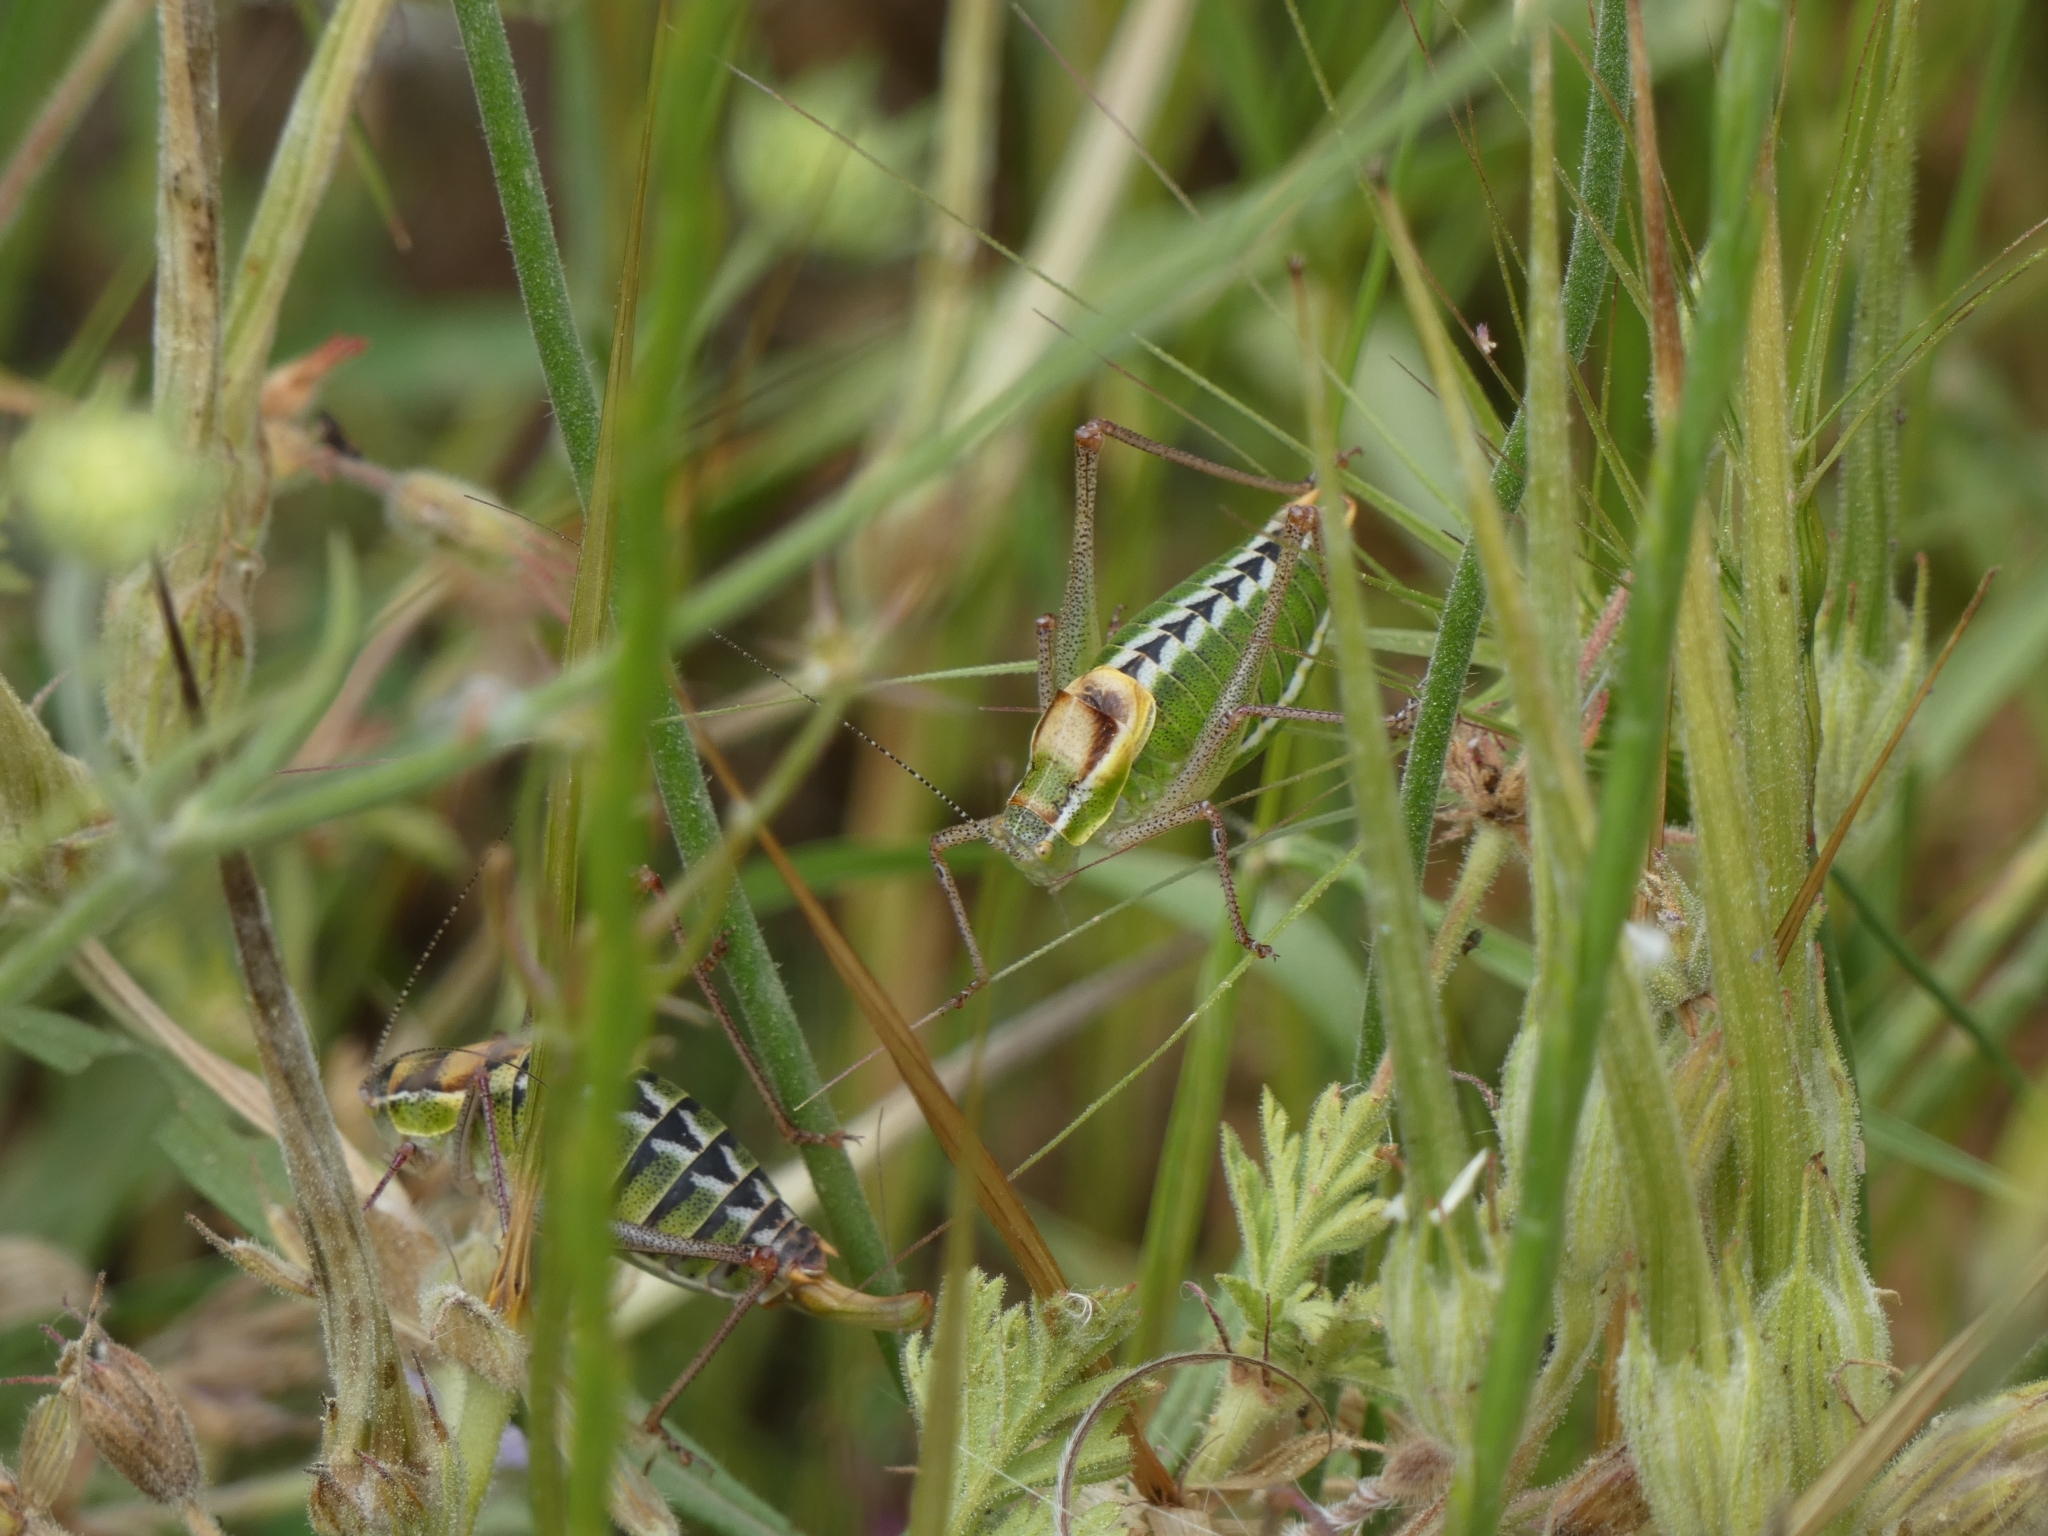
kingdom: Animalia
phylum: Arthropoda
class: Insecta
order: Orthoptera
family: Tettigoniidae
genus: Poecilimon
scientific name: Poecilimon zimmeri
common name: Zimmer's bright bush-cricket
